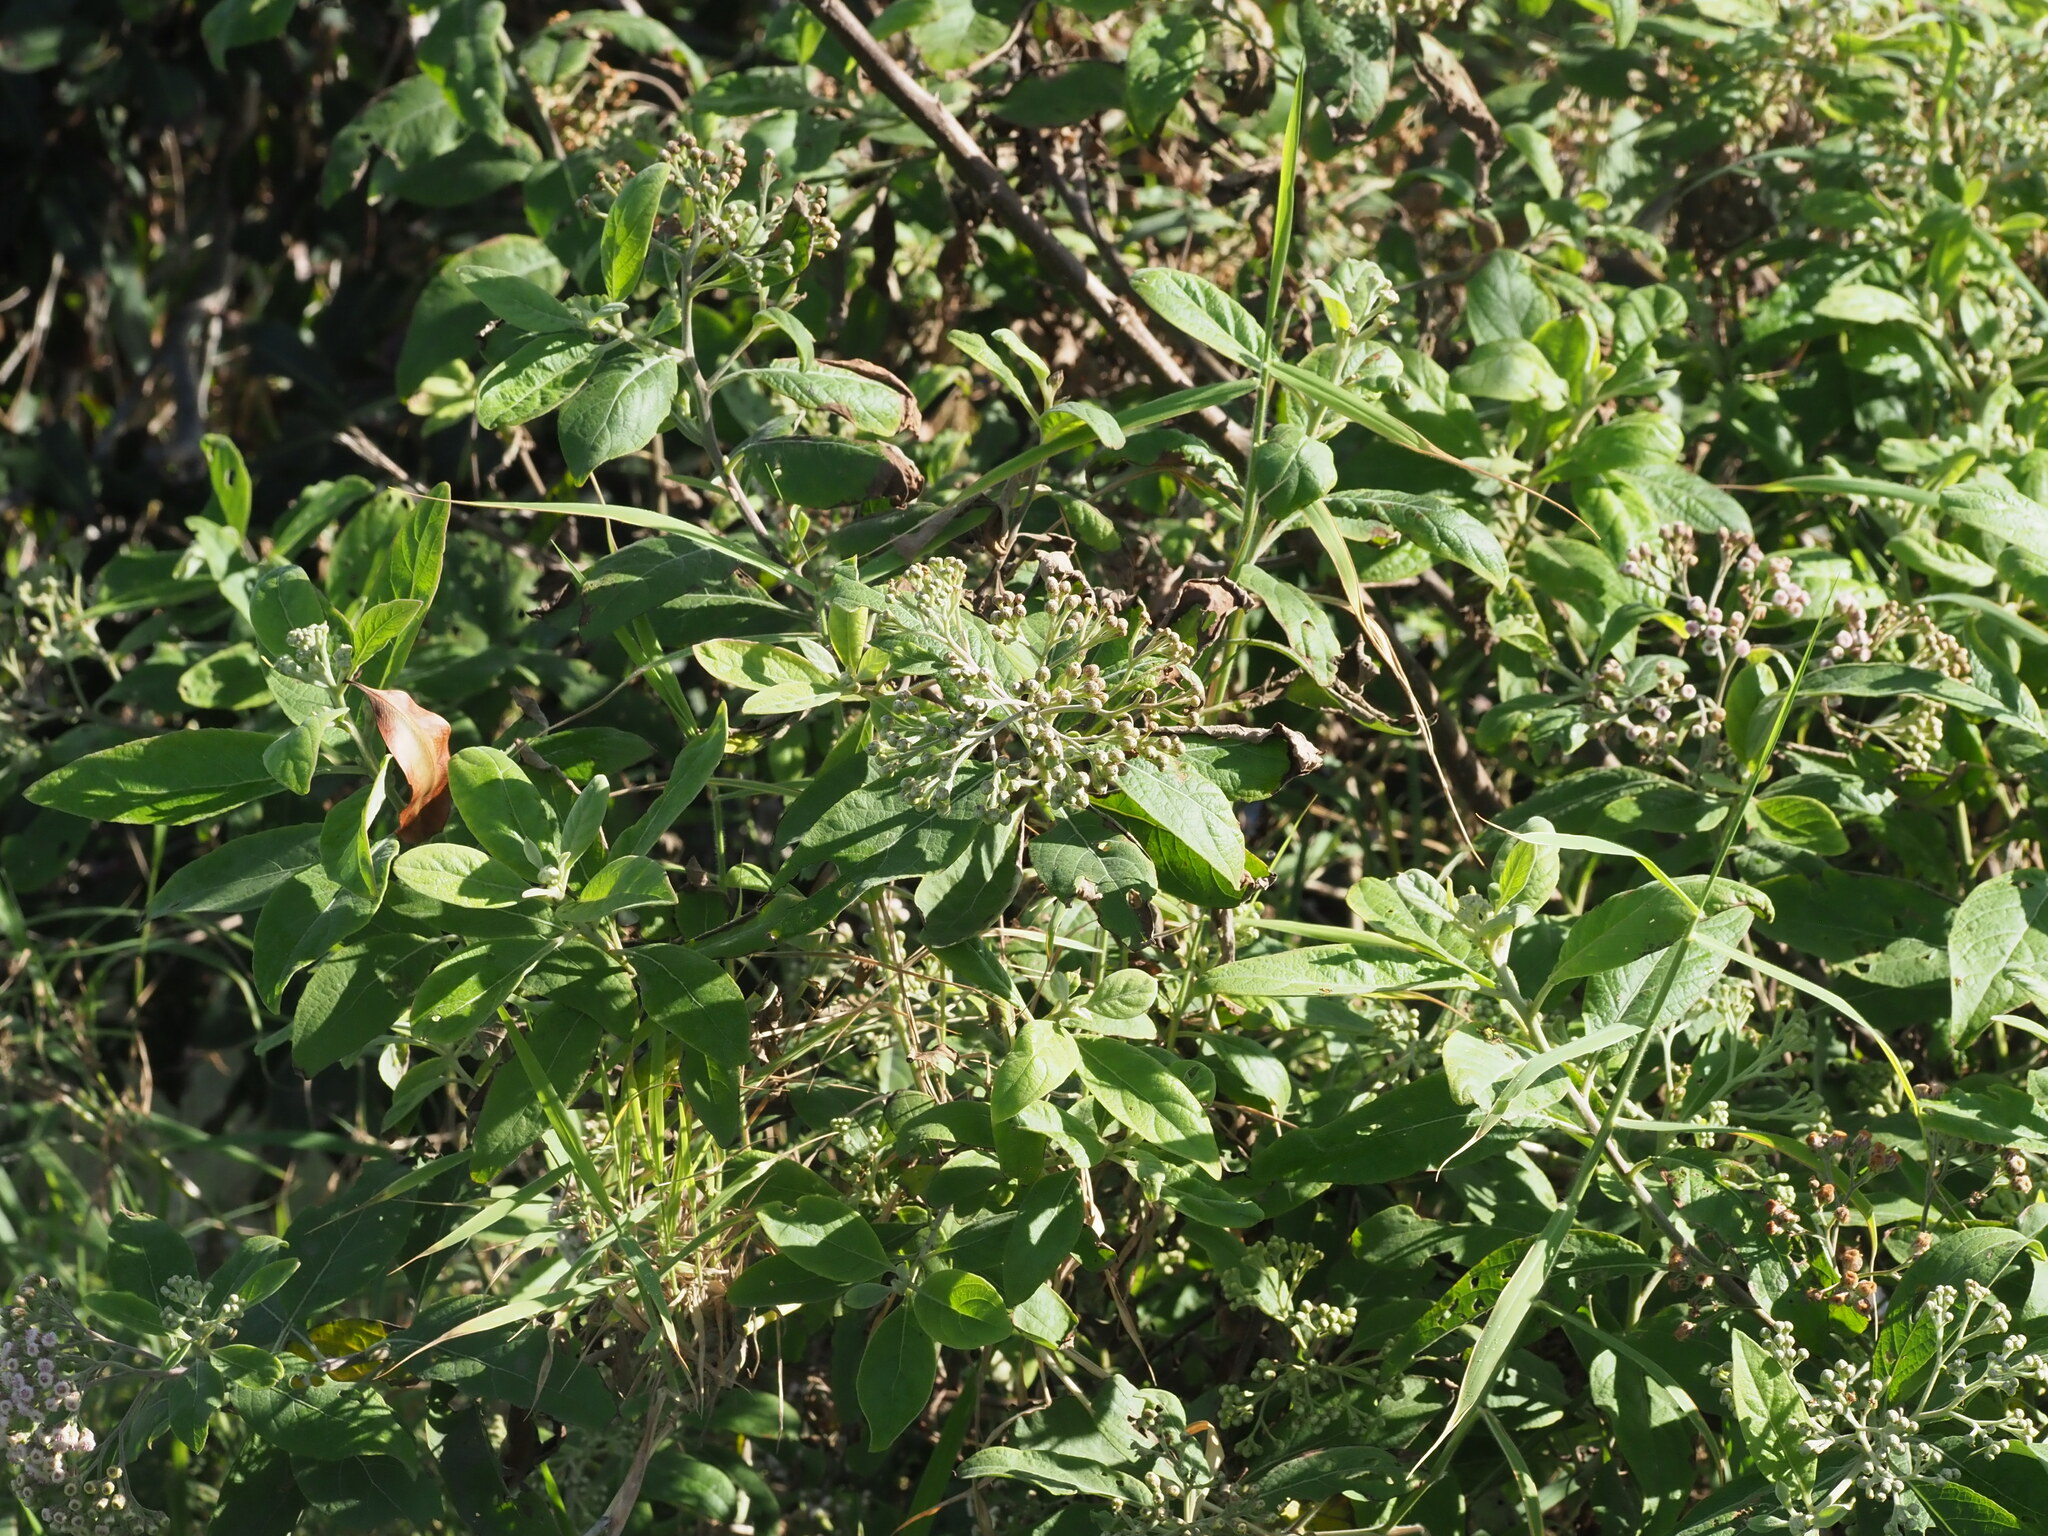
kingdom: Plantae
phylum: Tracheophyta
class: Magnoliopsida
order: Asterales
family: Asteraceae
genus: Pluchea
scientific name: Pluchea carolinensis
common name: Marsh fleabane
